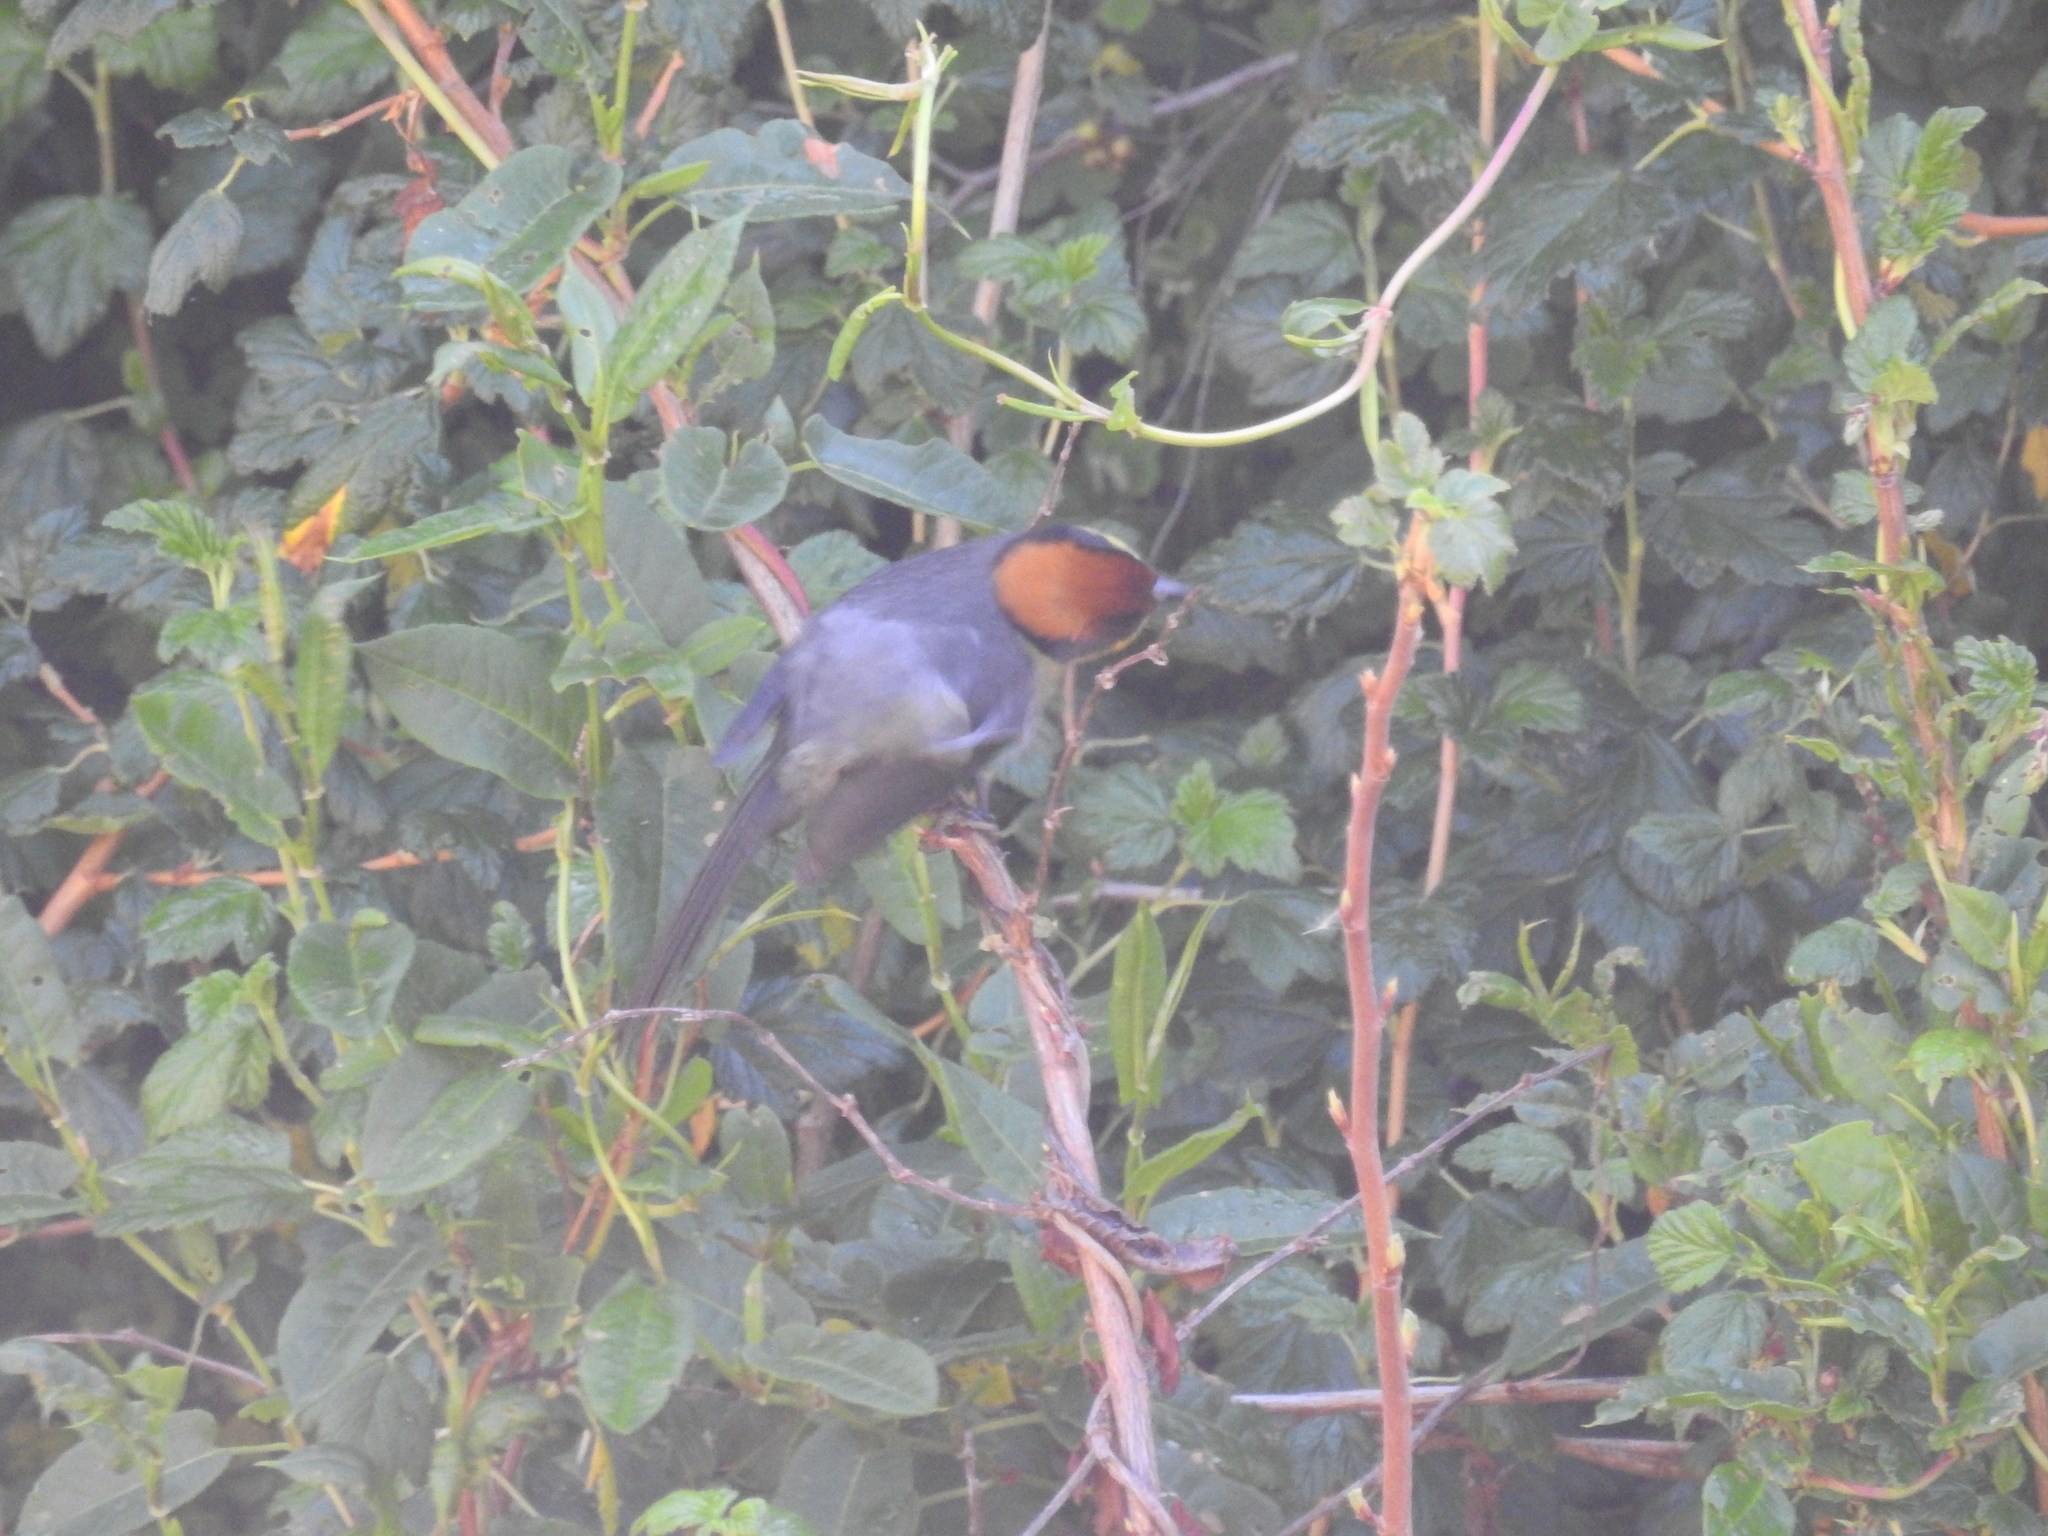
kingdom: Animalia
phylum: Chordata
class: Aves
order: Passeriformes
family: Passerellidae
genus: Atlapetes
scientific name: Atlapetes latinuchus
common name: Yellow-breasted brushfinch
